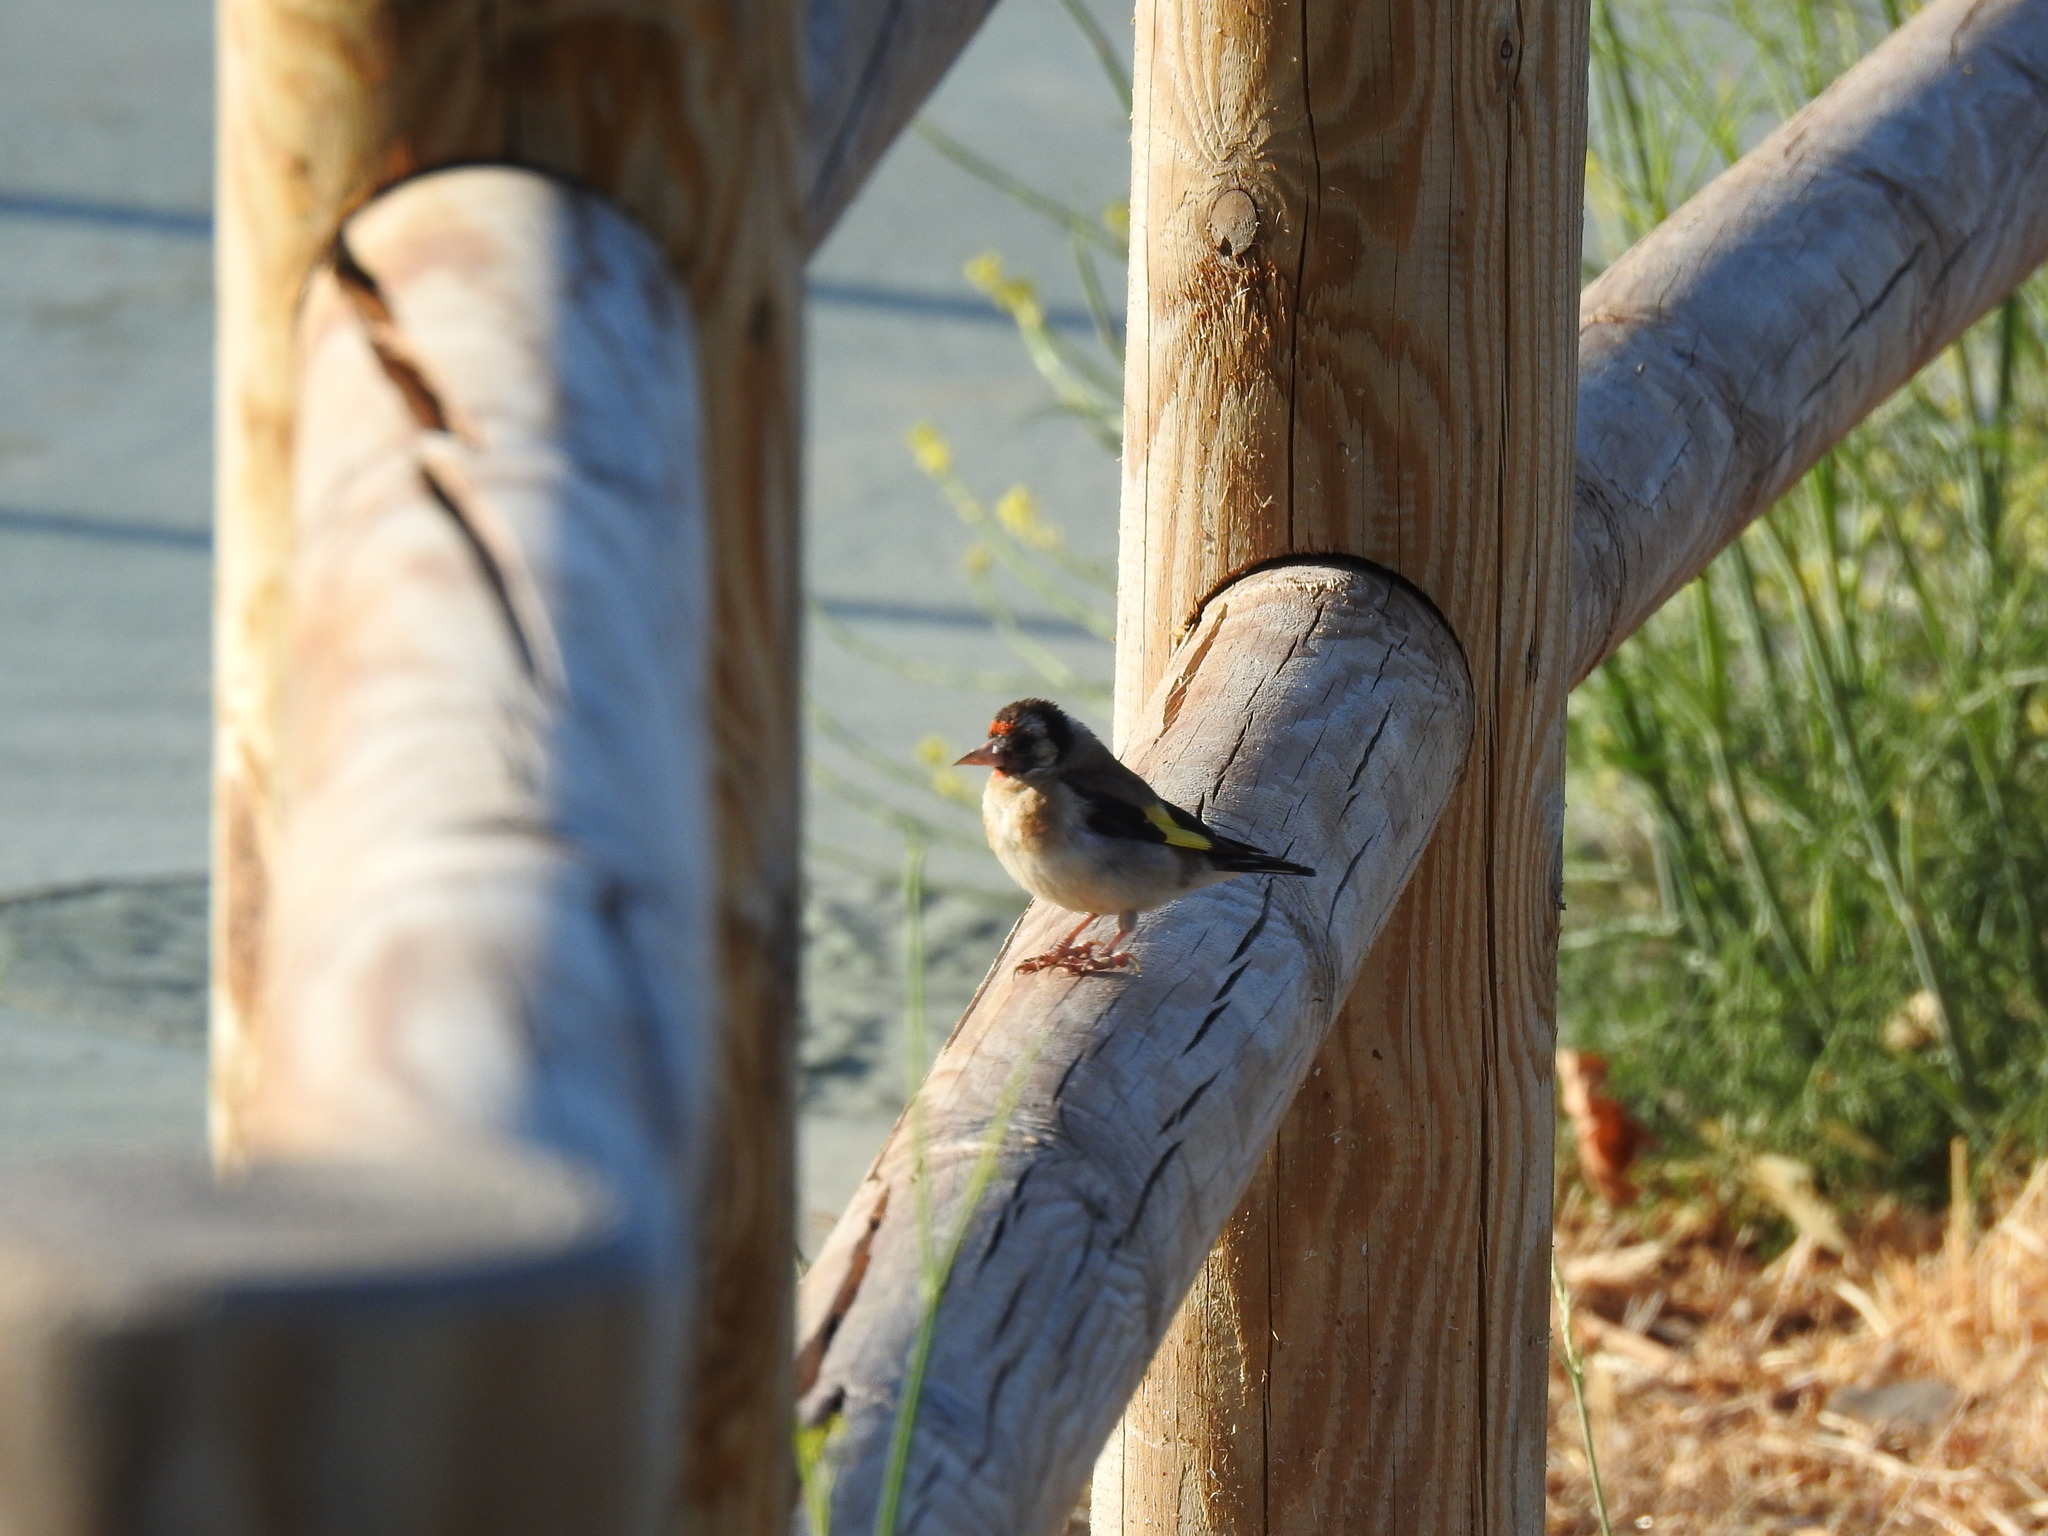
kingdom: Animalia
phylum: Chordata
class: Aves
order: Passeriformes
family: Fringillidae
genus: Carduelis
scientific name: Carduelis carduelis
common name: European goldfinch
